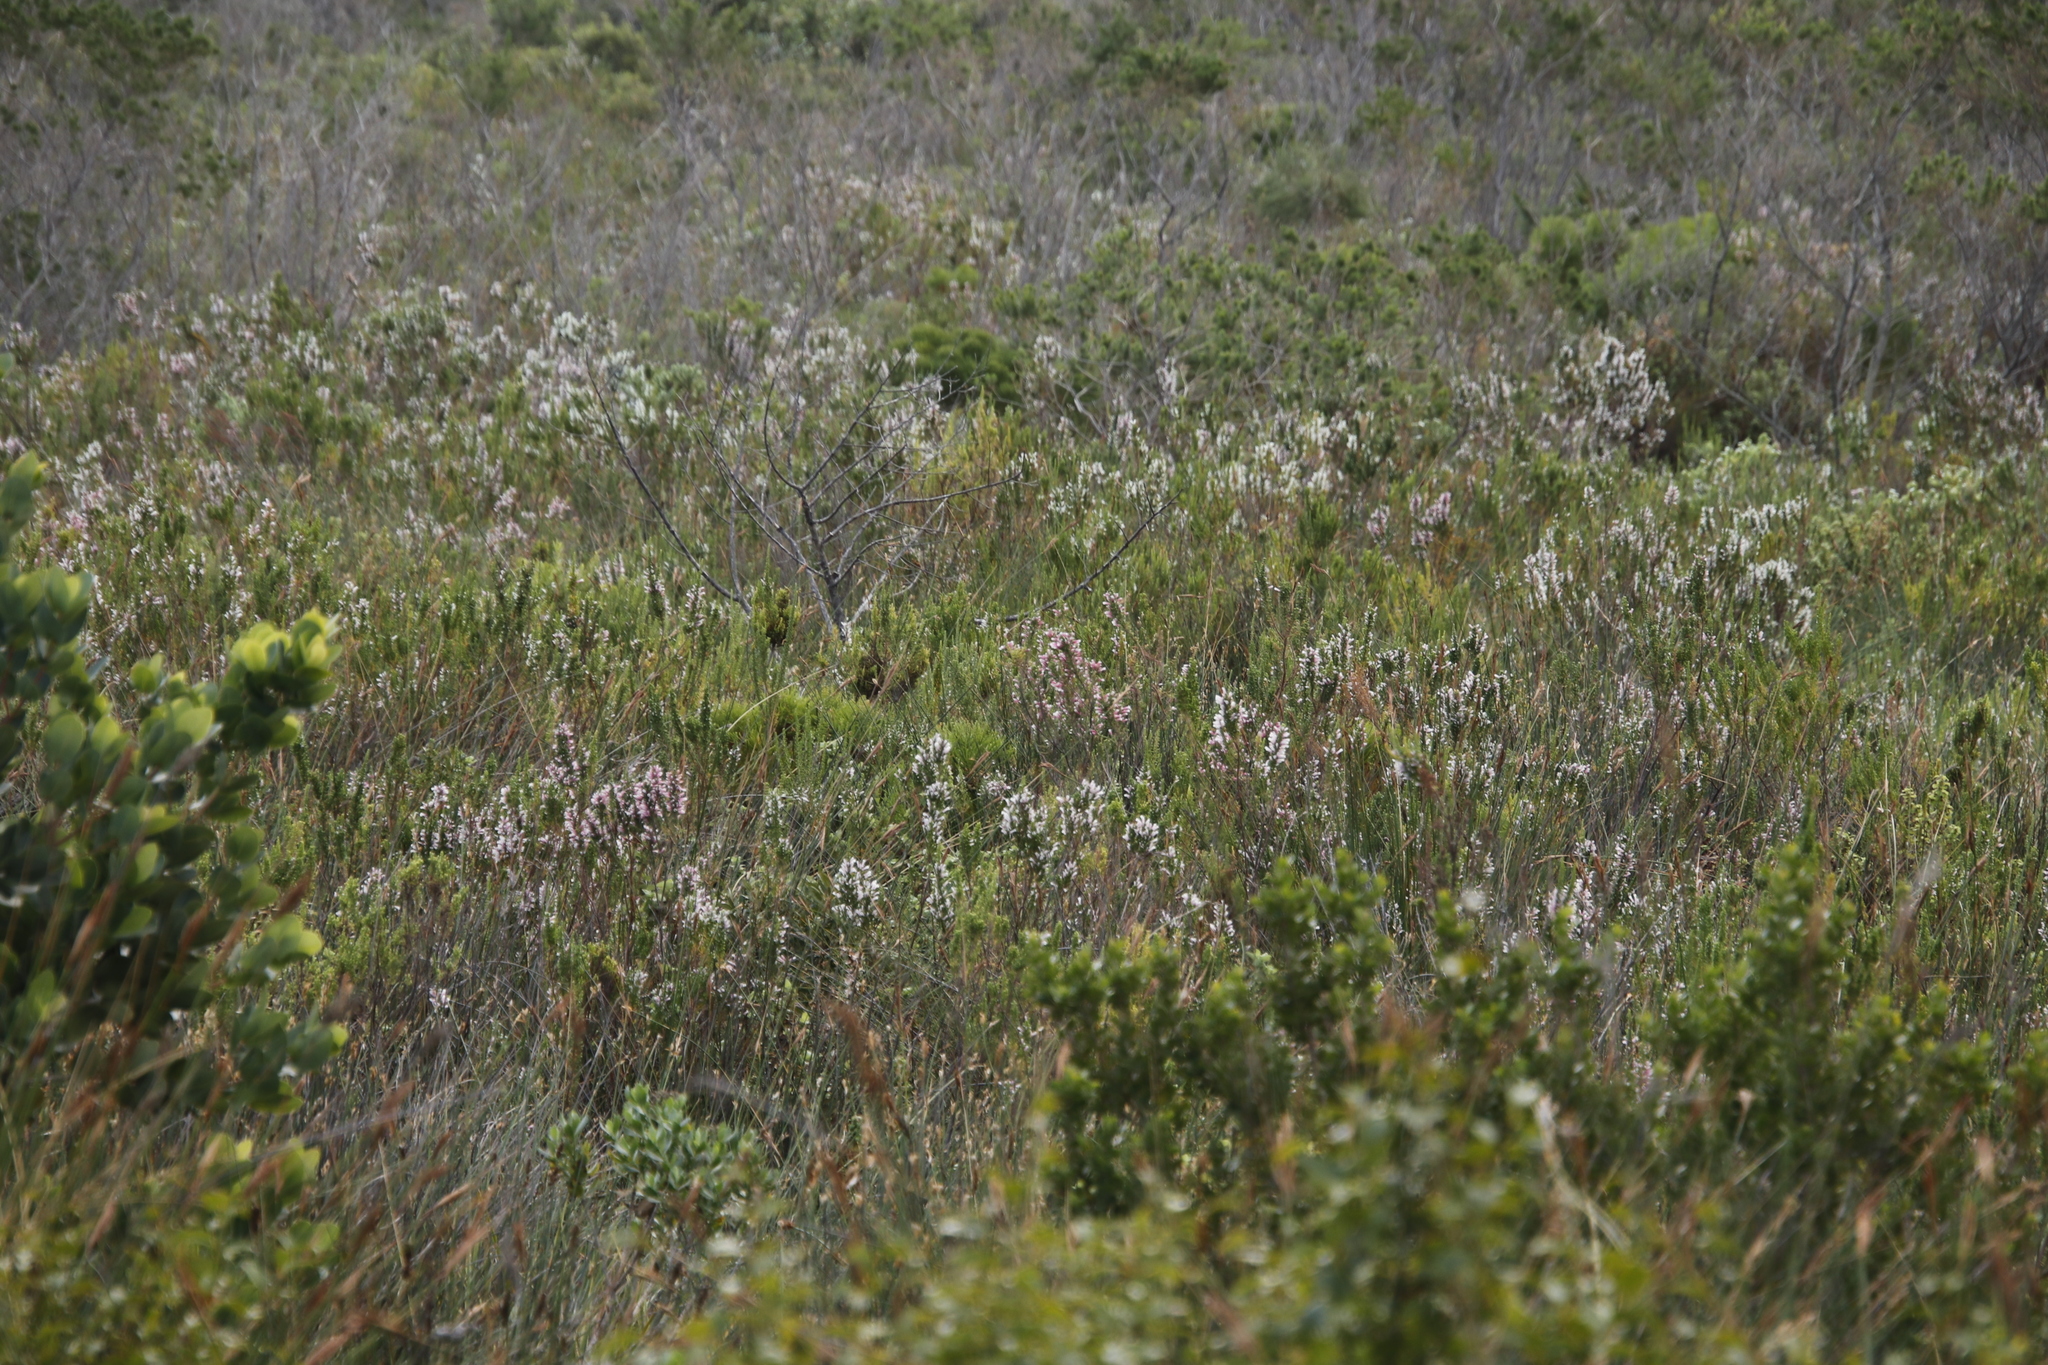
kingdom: Plantae
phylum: Tracheophyta
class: Magnoliopsida
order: Ericales
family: Ericaceae
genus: Erica
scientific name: Erica perspicua
